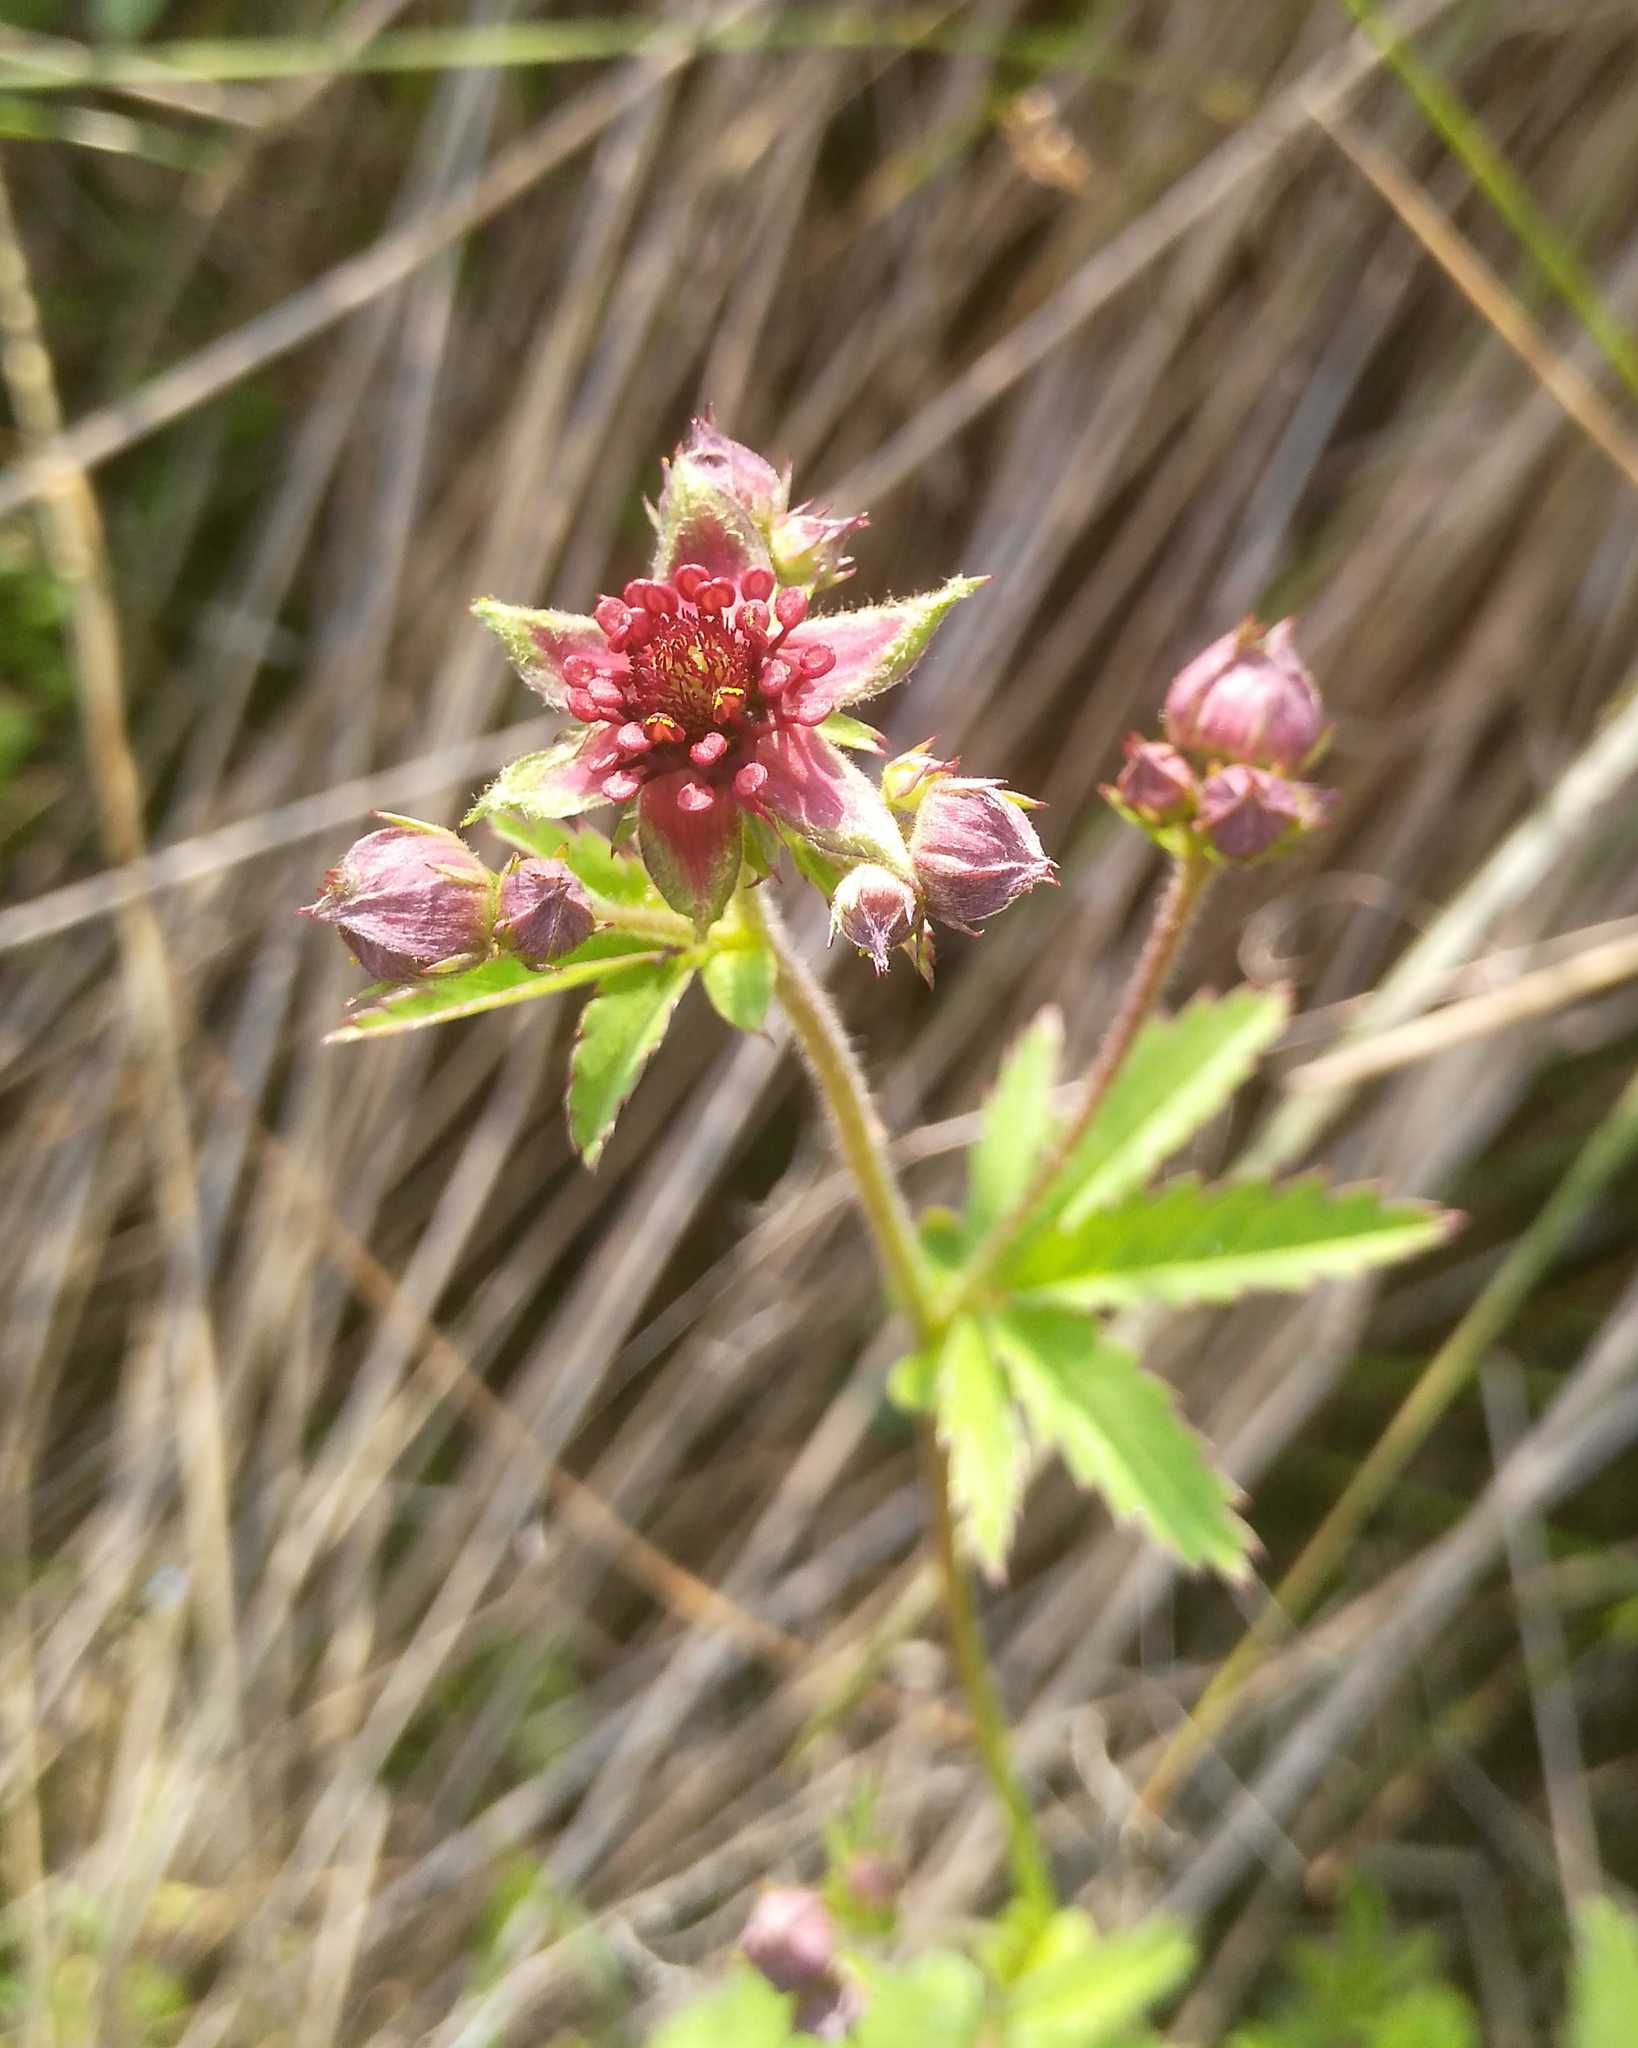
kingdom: Plantae
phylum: Tracheophyta
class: Magnoliopsida
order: Rosales
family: Rosaceae
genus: Comarum
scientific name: Comarum palustre
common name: Marsh cinquefoil
